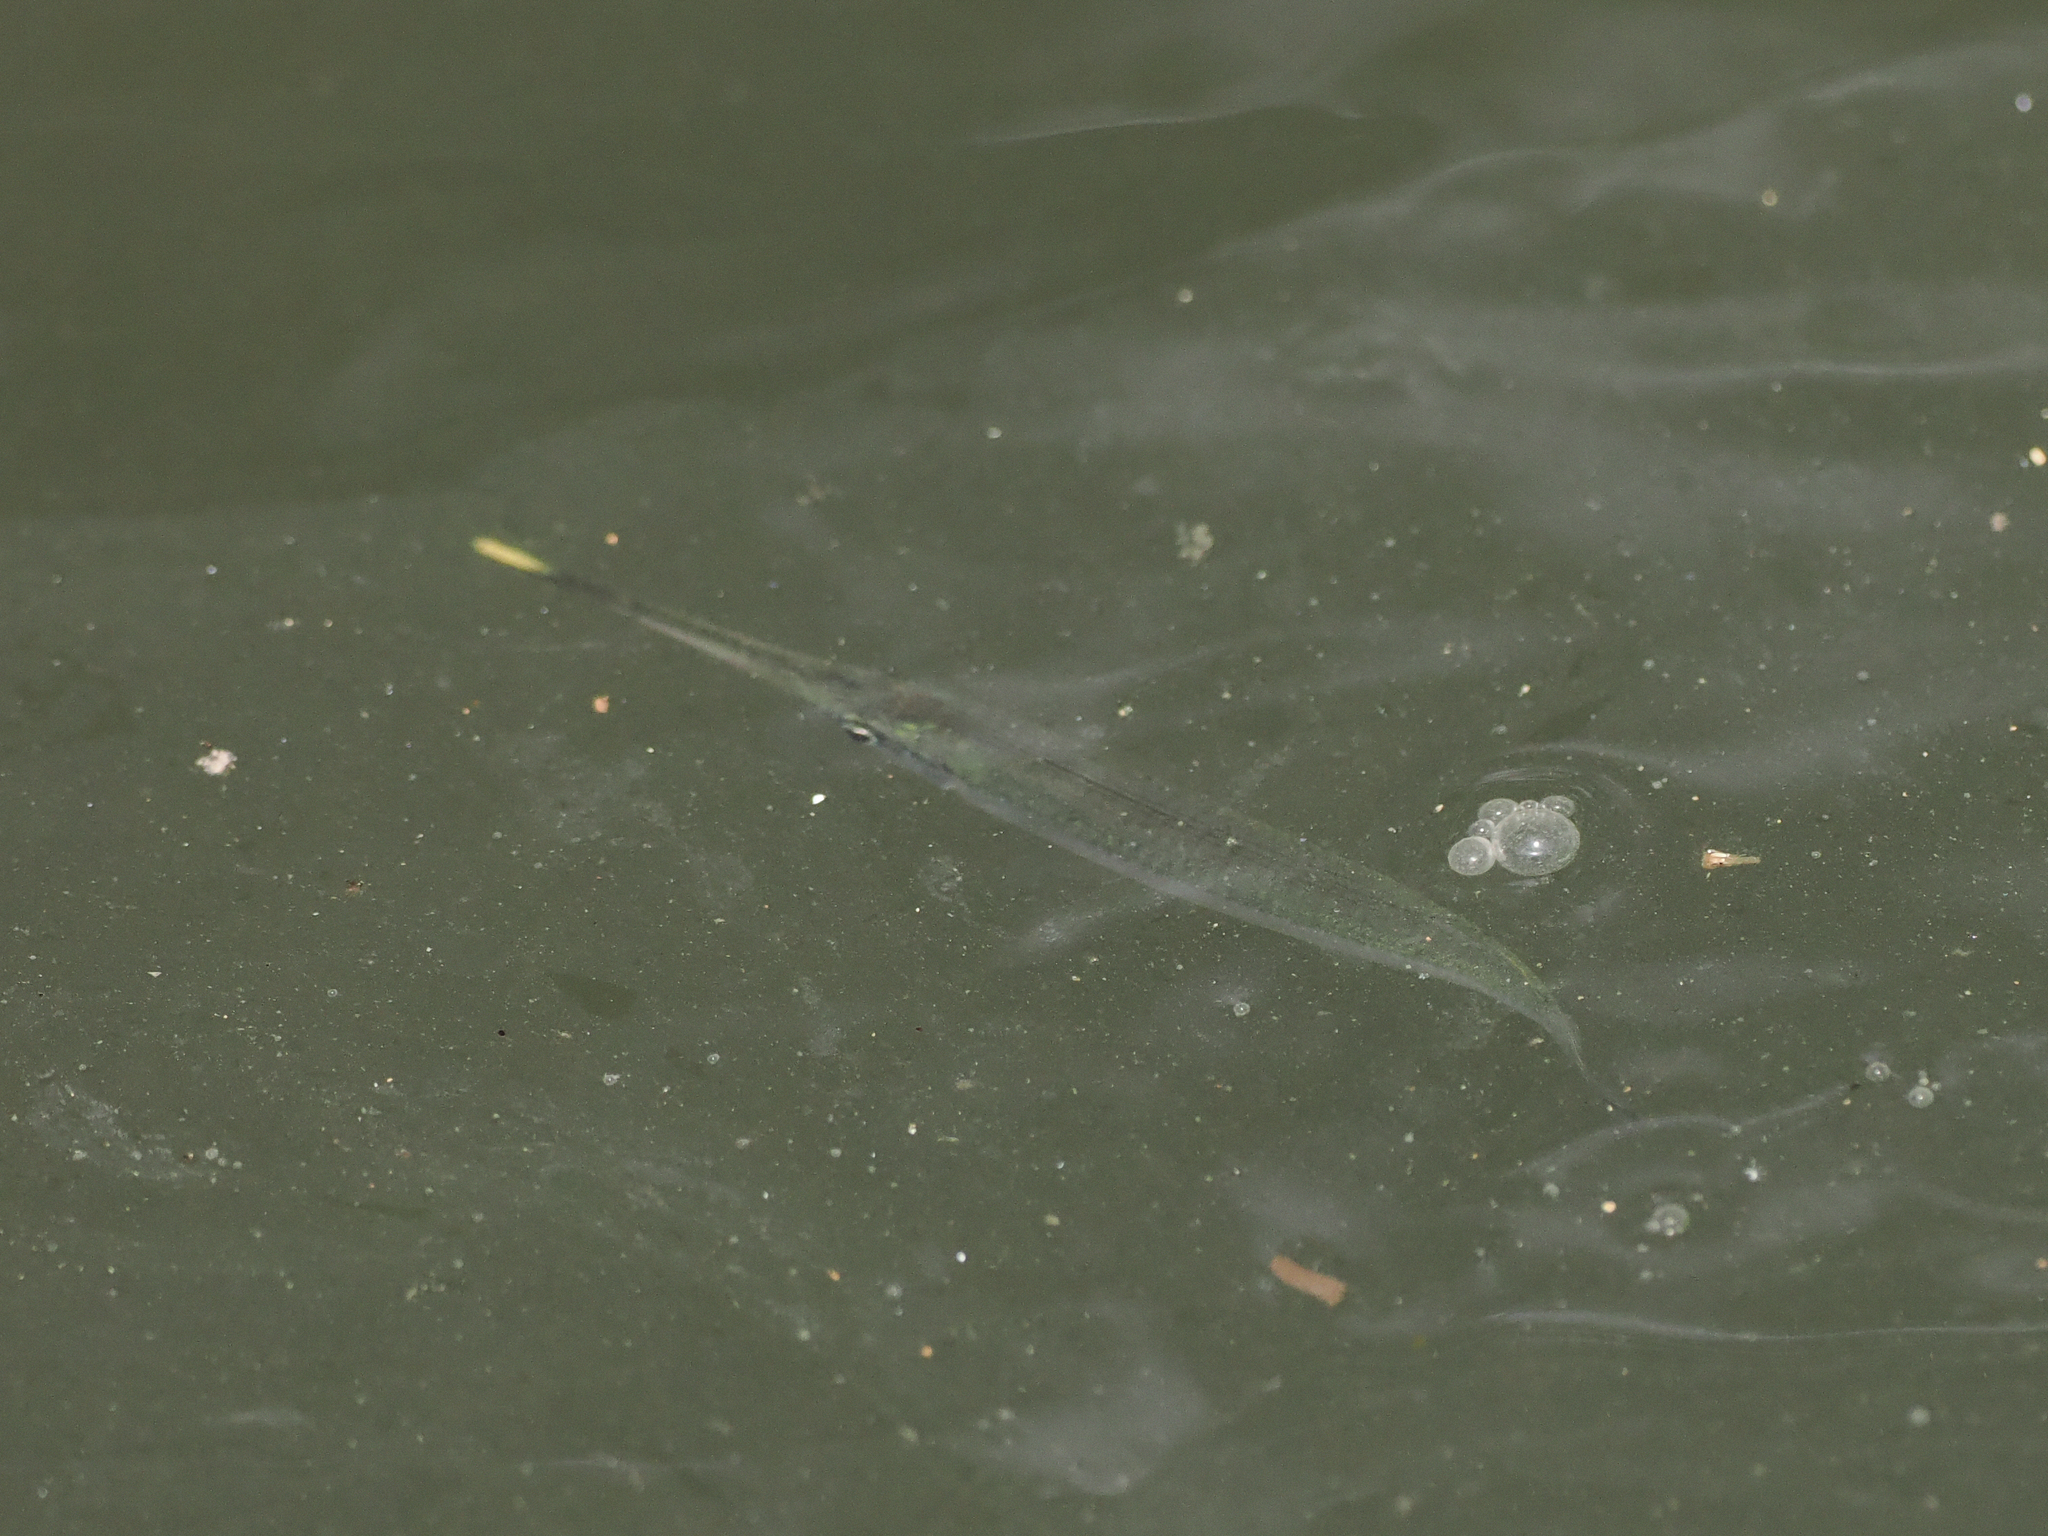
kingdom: Animalia
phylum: Chordata
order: Beloniformes
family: Zenarchopteridae
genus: Zenarchopterus
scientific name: Zenarchopterus buffonis
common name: Buffon's river-garfish
